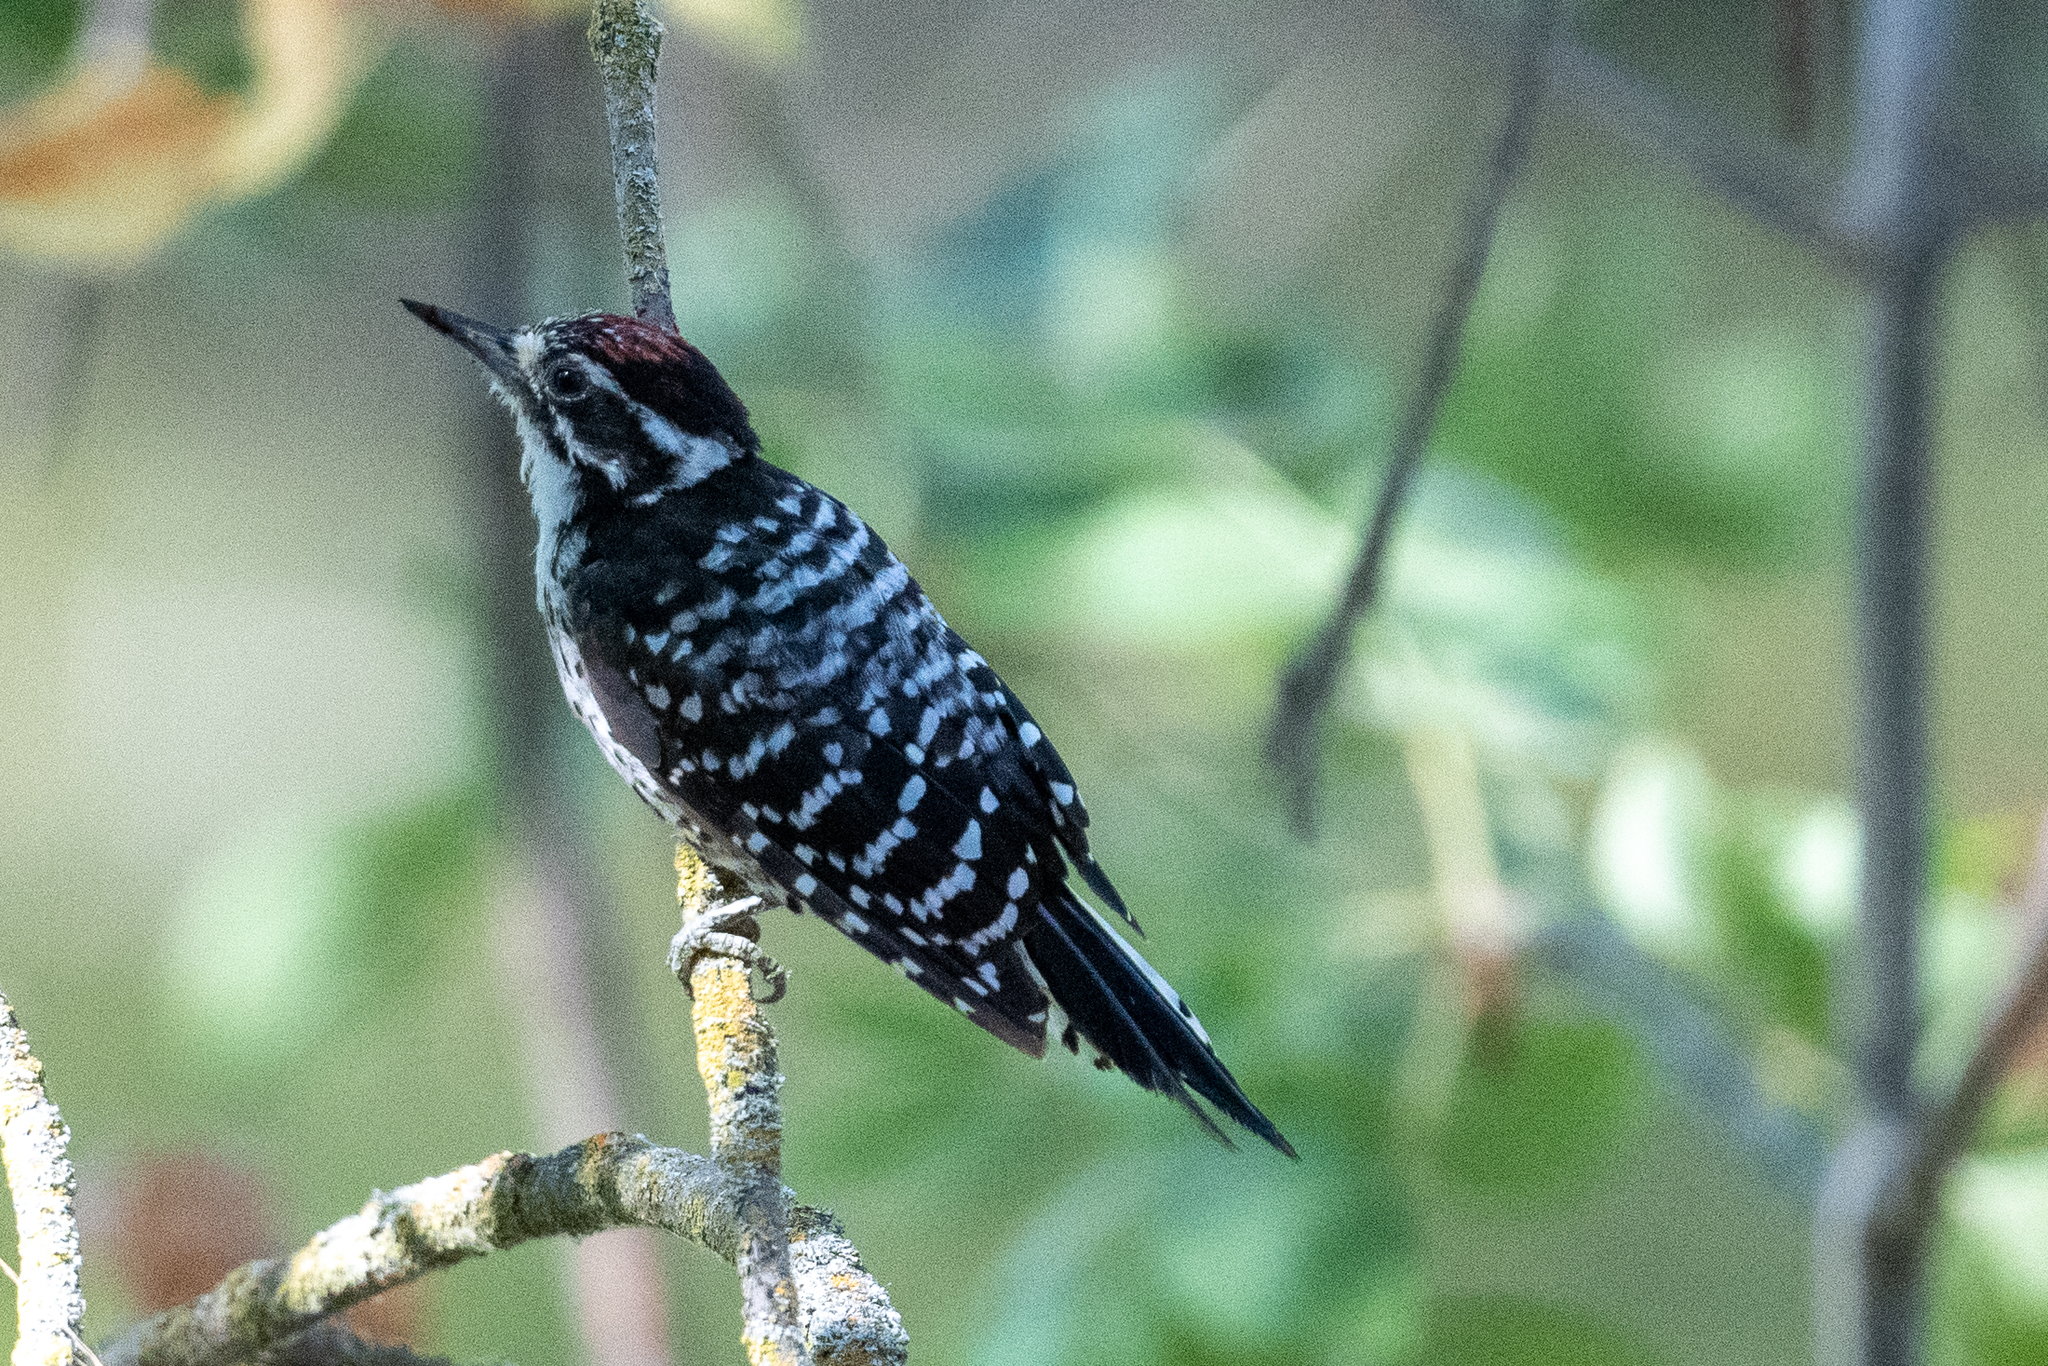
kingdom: Animalia
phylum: Chordata
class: Aves
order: Piciformes
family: Picidae
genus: Dryobates
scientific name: Dryobates nuttallii
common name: Nuttall's woodpecker
